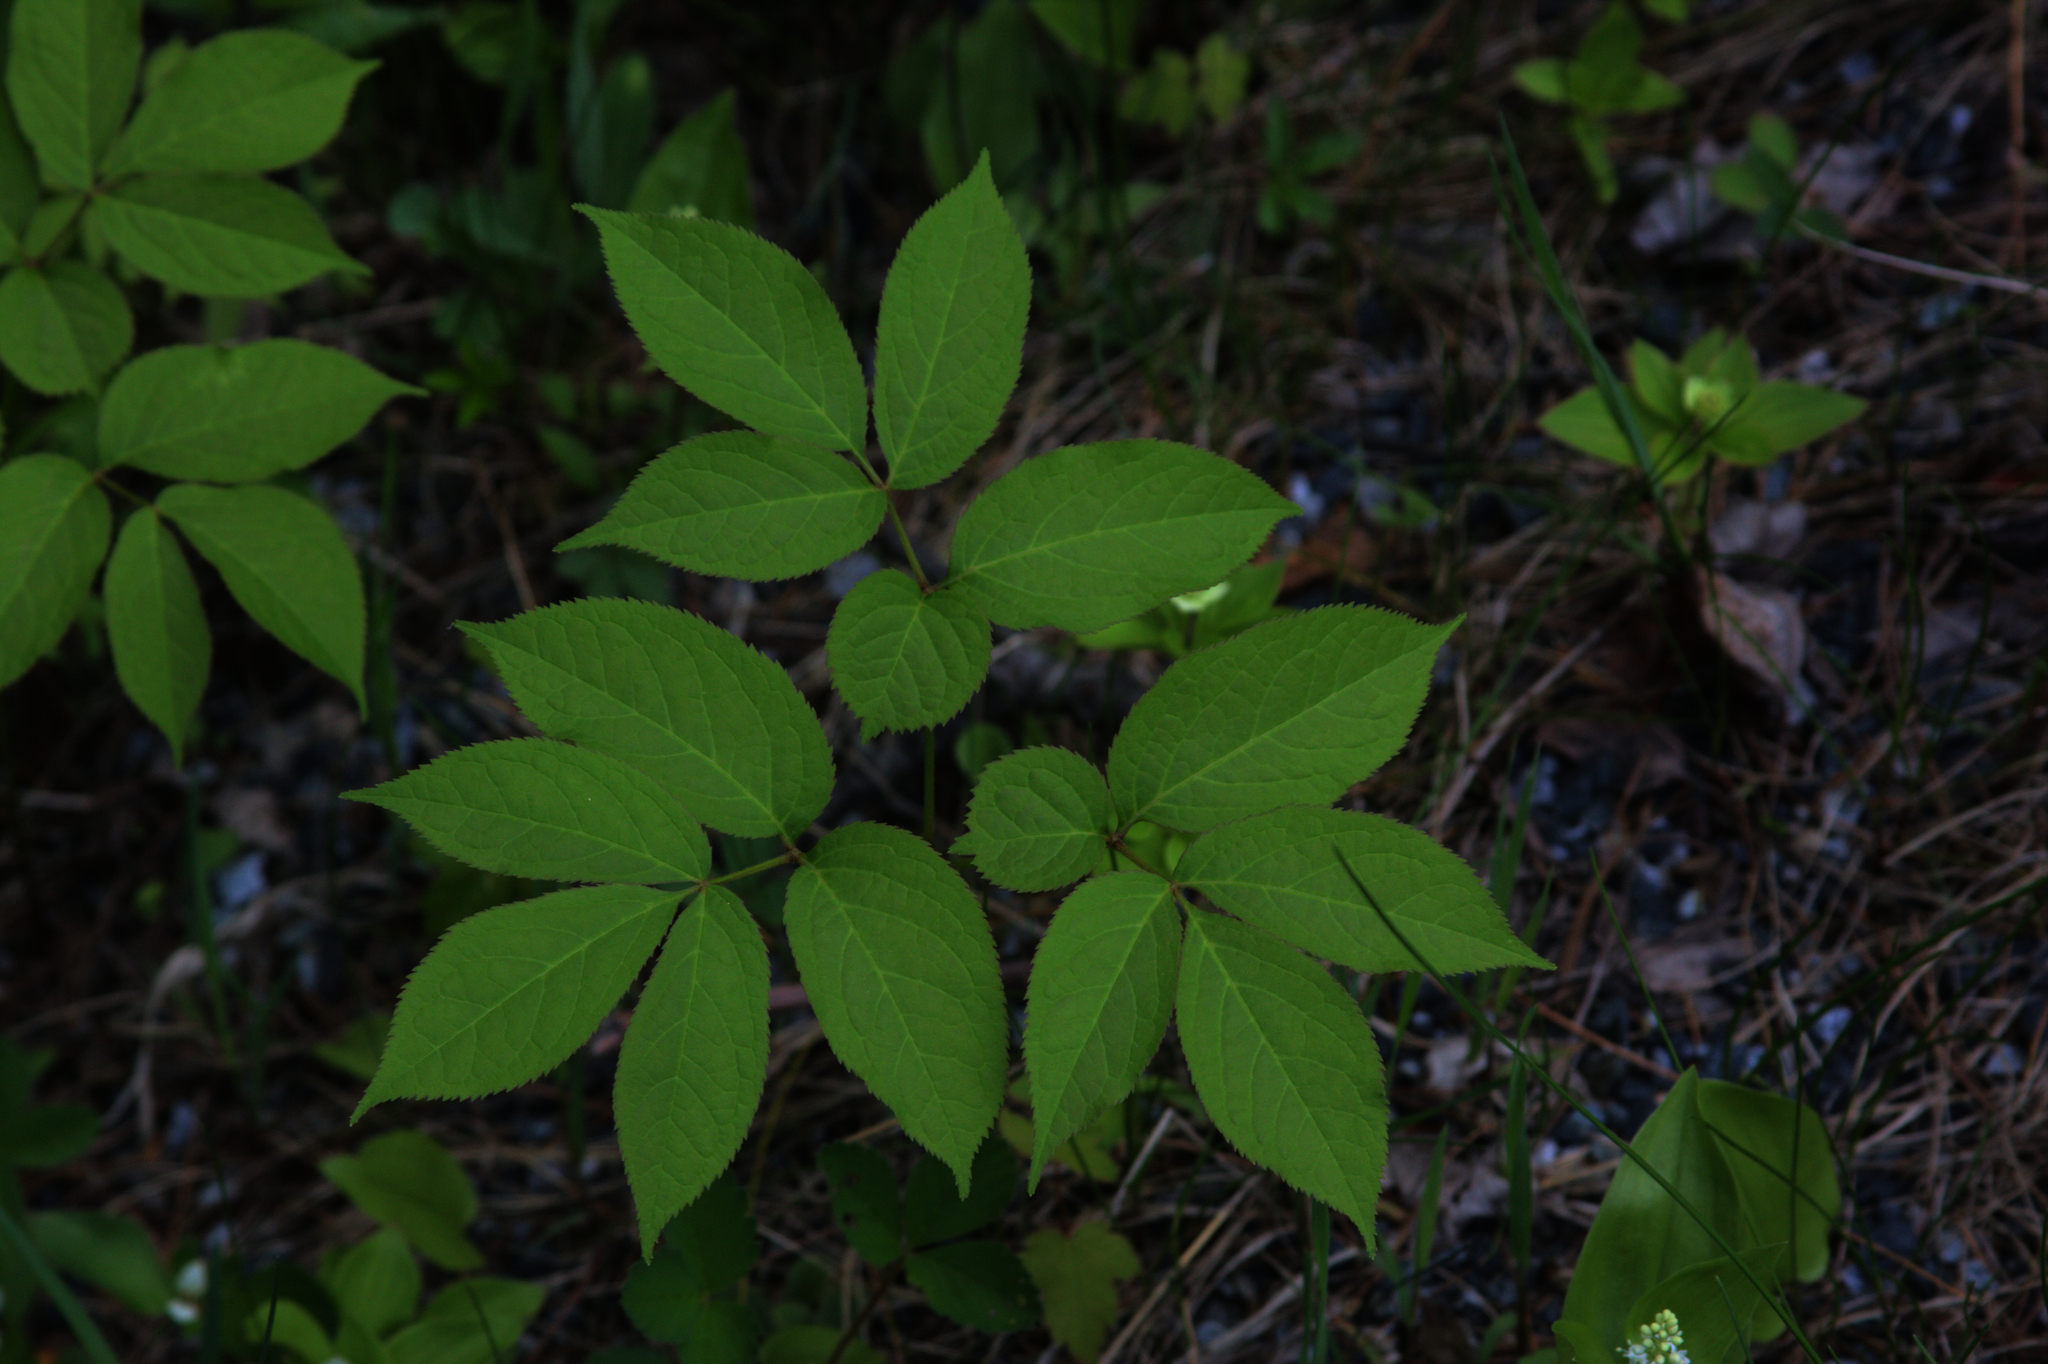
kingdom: Plantae
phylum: Tracheophyta
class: Magnoliopsida
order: Apiales
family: Araliaceae
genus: Aralia
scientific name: Aralia nudicaulis
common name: Wild sarsaparilla
